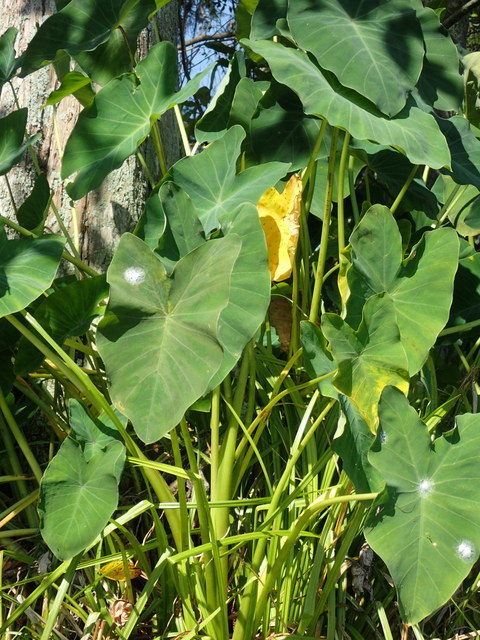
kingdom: Plantae
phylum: Tracheophyta
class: Liliopsida
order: Alismatales
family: Araceae
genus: Colocasia
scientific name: Colocasia esculenta
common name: Taro
